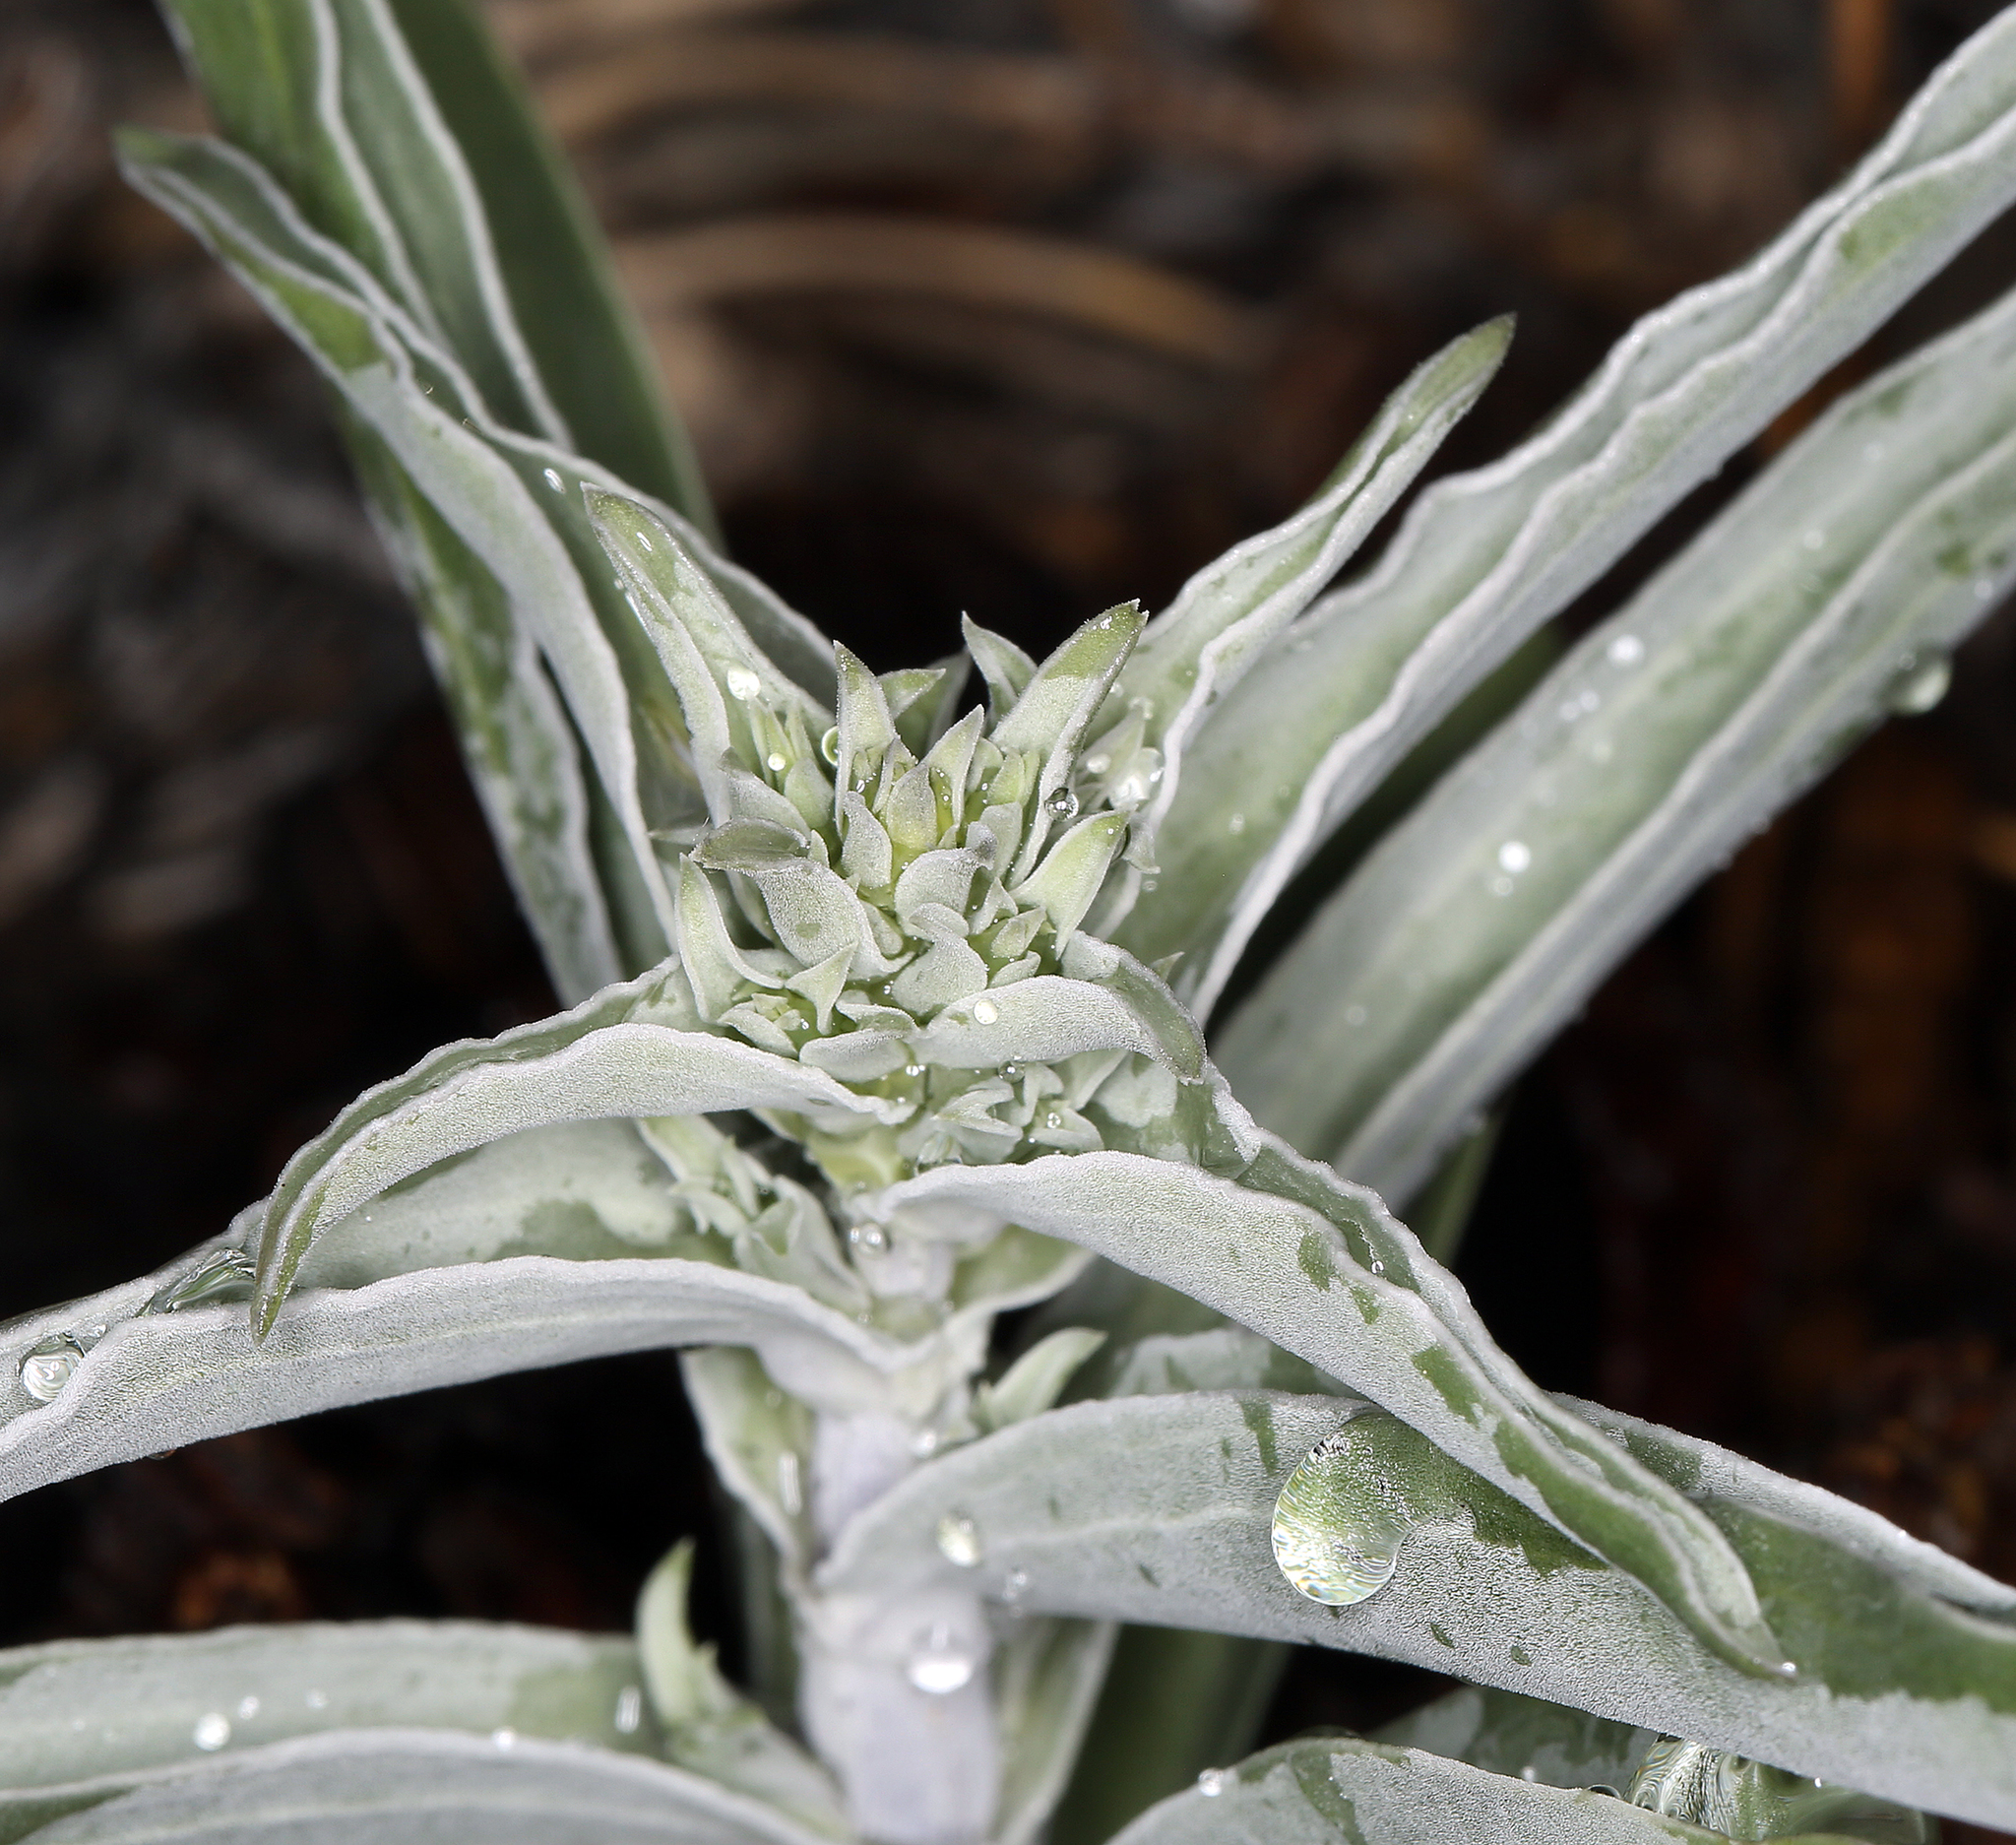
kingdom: Plantae
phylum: Tracheophyta
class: Magnoliopsida
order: Gentianales
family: Gentianaceae
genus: Frasera
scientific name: Frasera puberulenta
